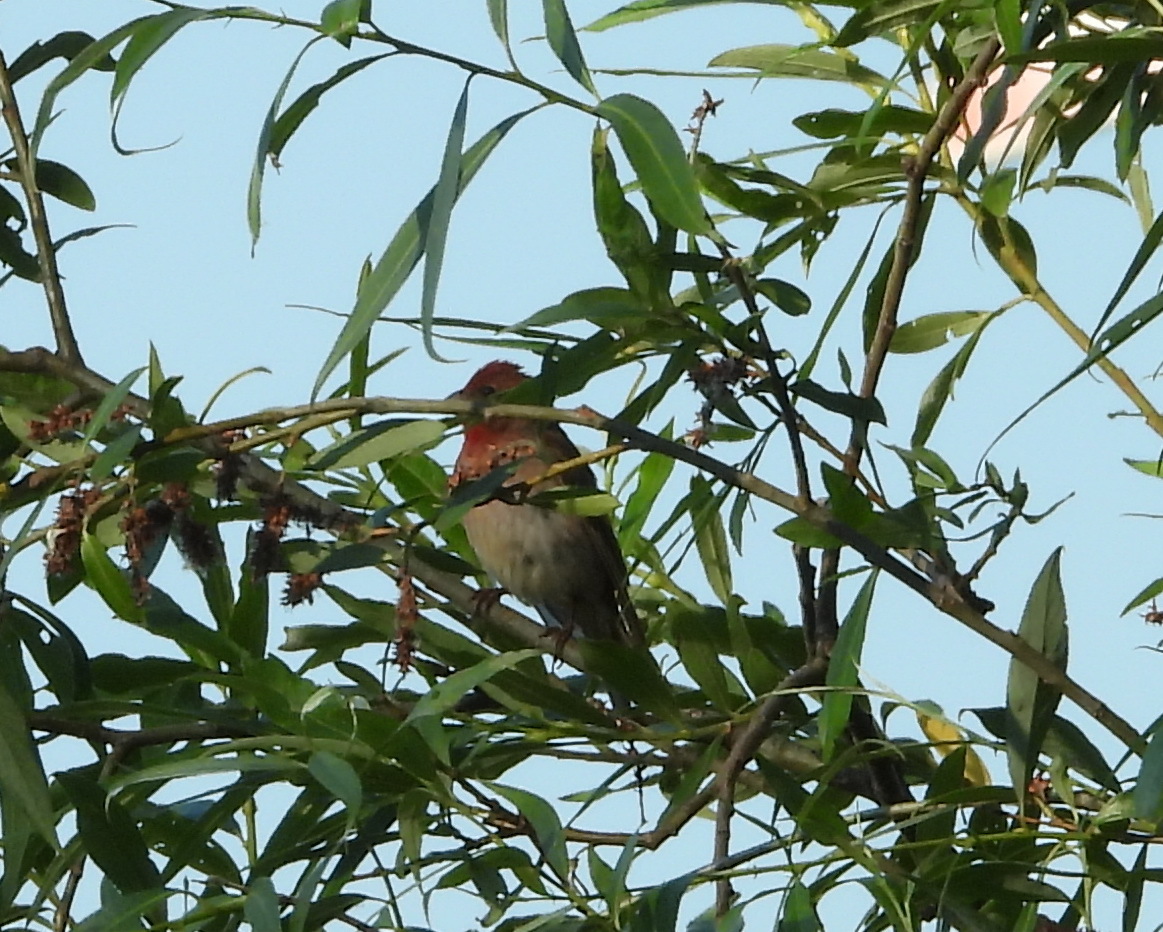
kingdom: Animalia
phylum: Chordata
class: Aves
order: Passeriformes
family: Fringillidae
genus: Carpodacus
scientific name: Carpodacus erythrinus
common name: Common rosefinch
